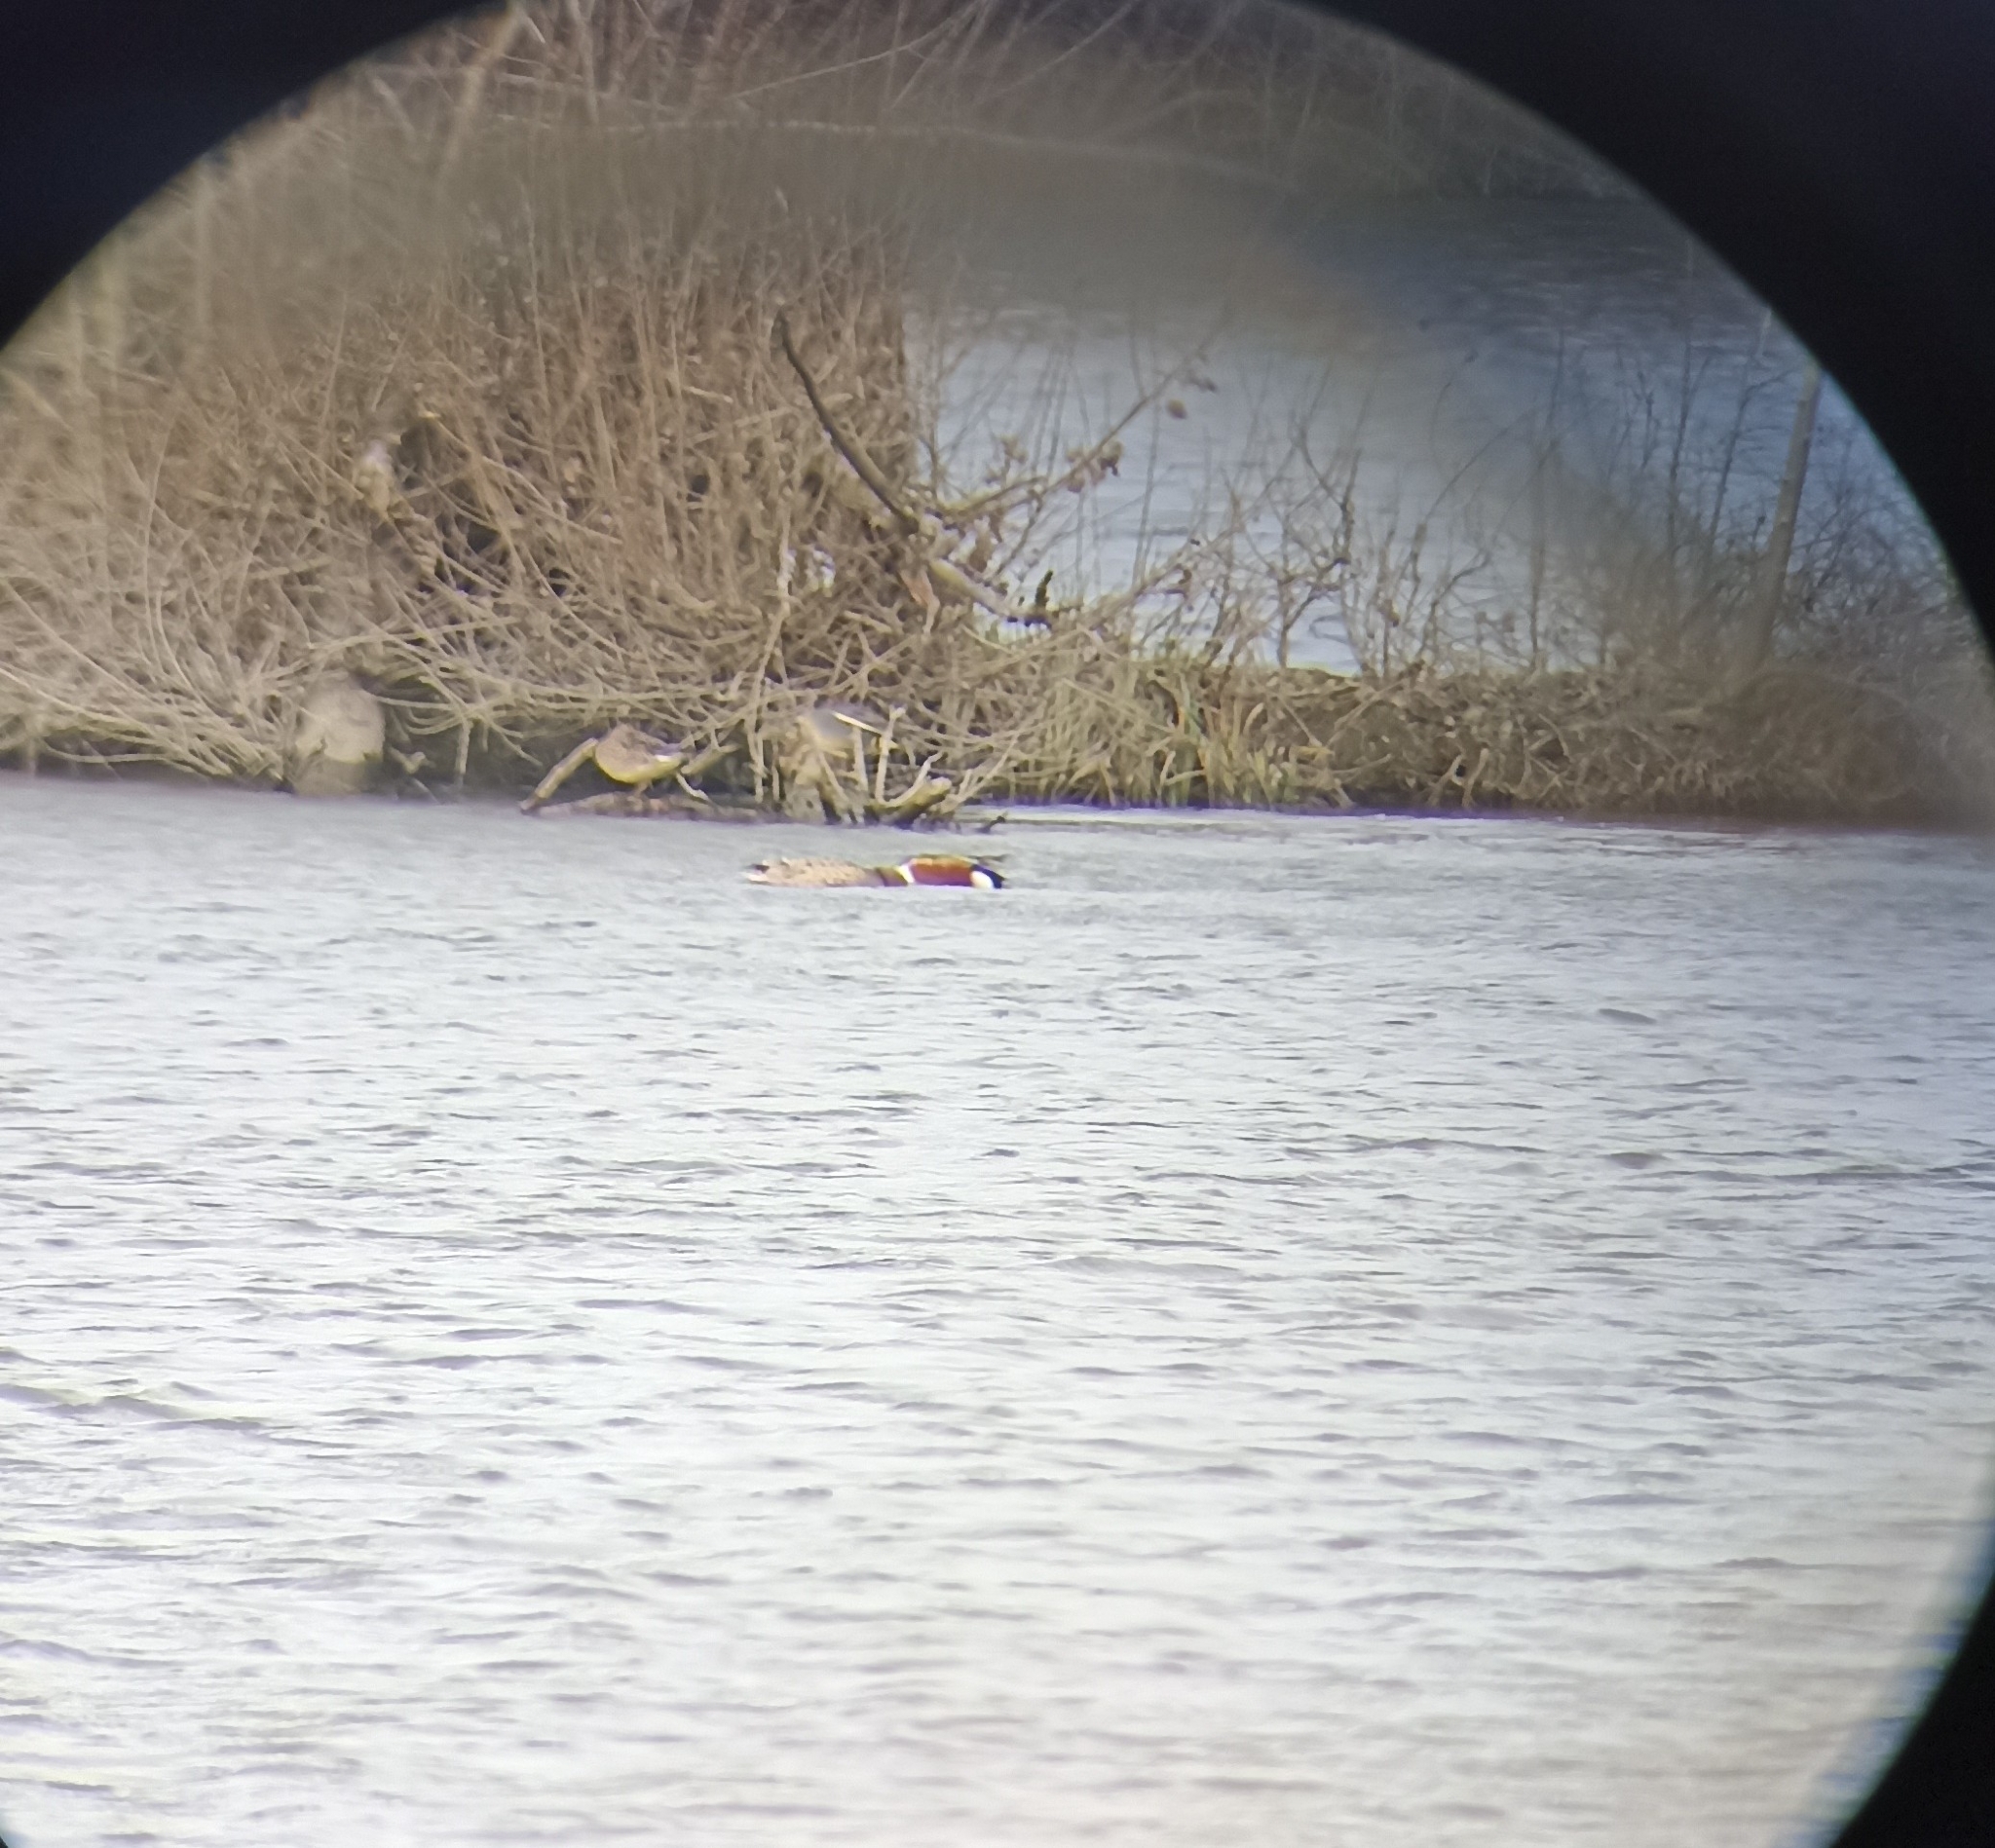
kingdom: Animalia
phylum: Chordata
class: Aves
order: Anseriformes
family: Anatidae
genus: Spatula
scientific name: Spatula clypeata
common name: Northern shoveler
